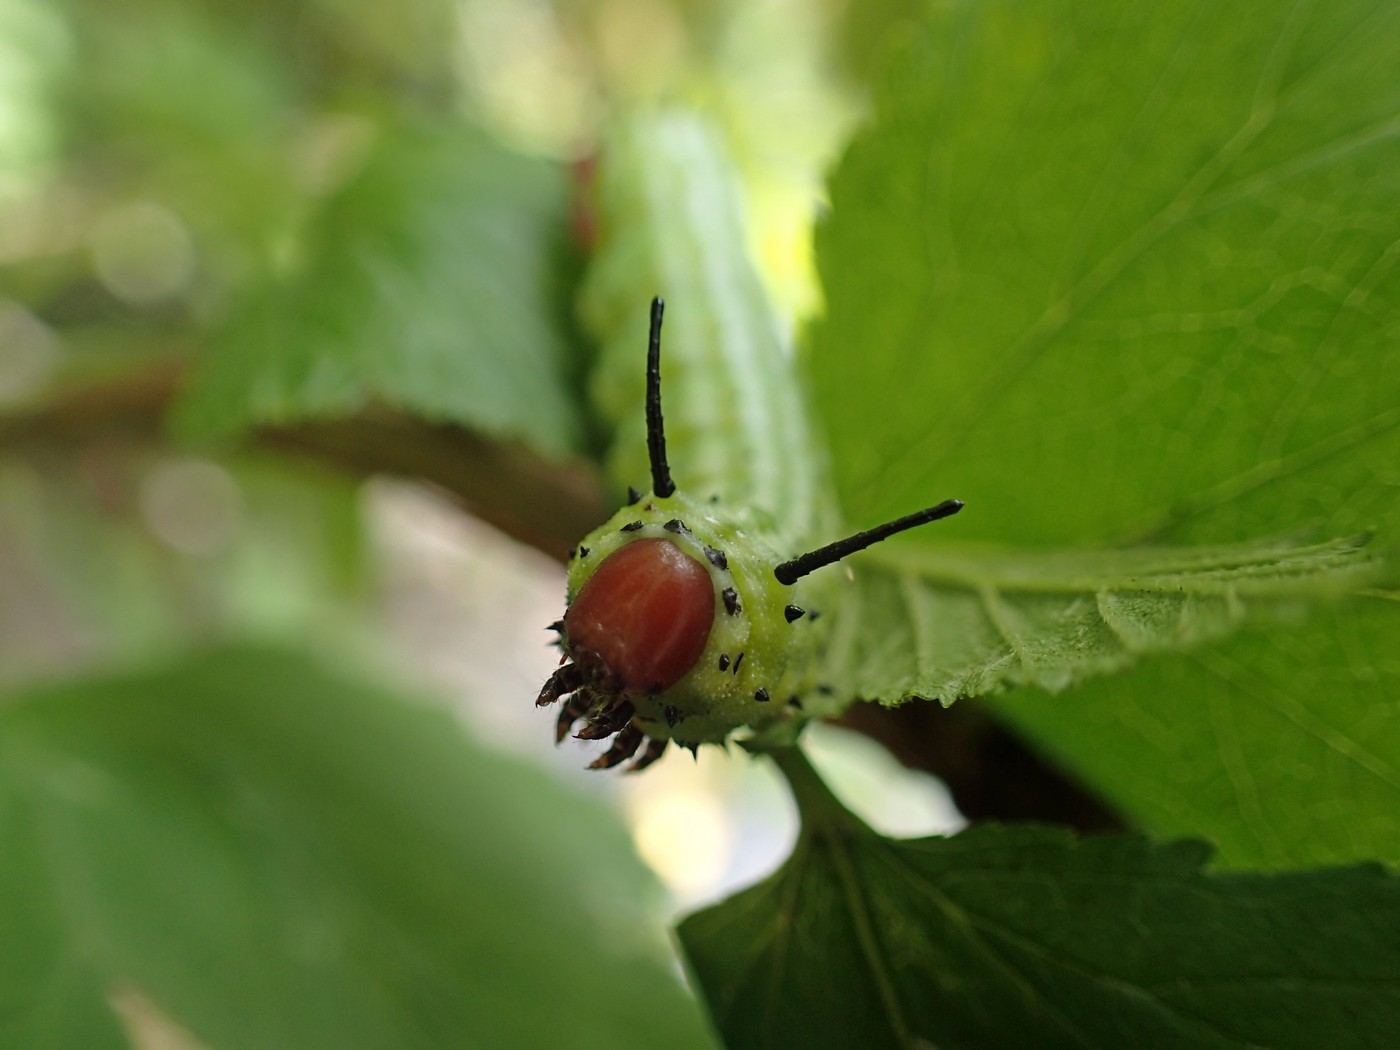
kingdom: Animalia
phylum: Arthropoda
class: Insecta
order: Lepidoptera
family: Saturniidae
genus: Dryocampa
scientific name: Dryocampa rubicunda
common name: Rosy maple moth
